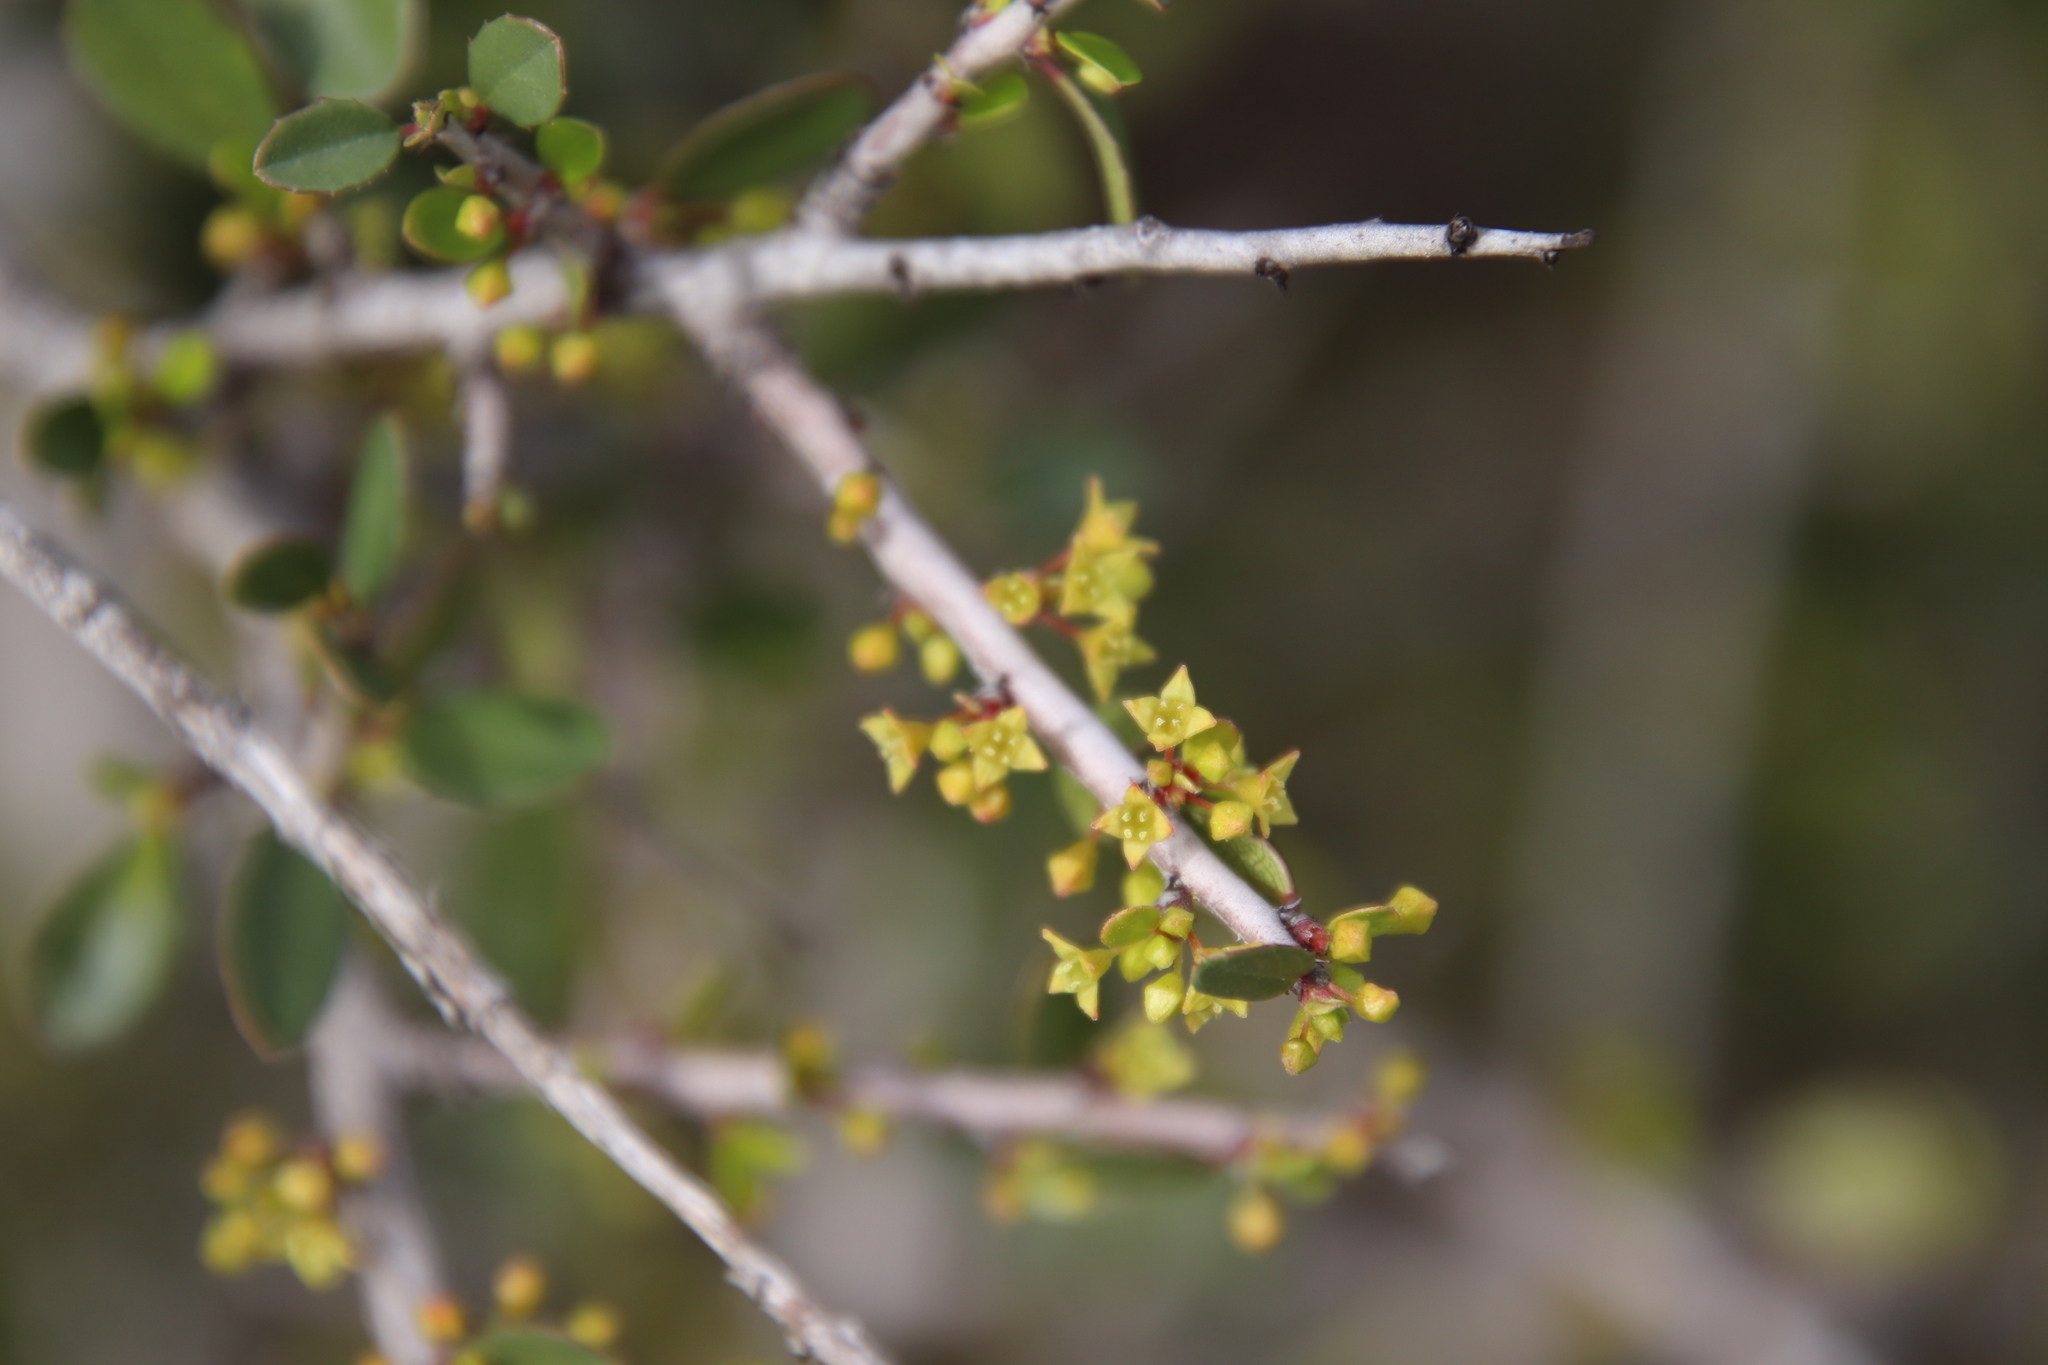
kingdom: Plantae
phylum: Tracheophyta
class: Magnoliopsida
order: Rosales
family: Rhamnaceae
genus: Endotropis
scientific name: Endotropis crocea
